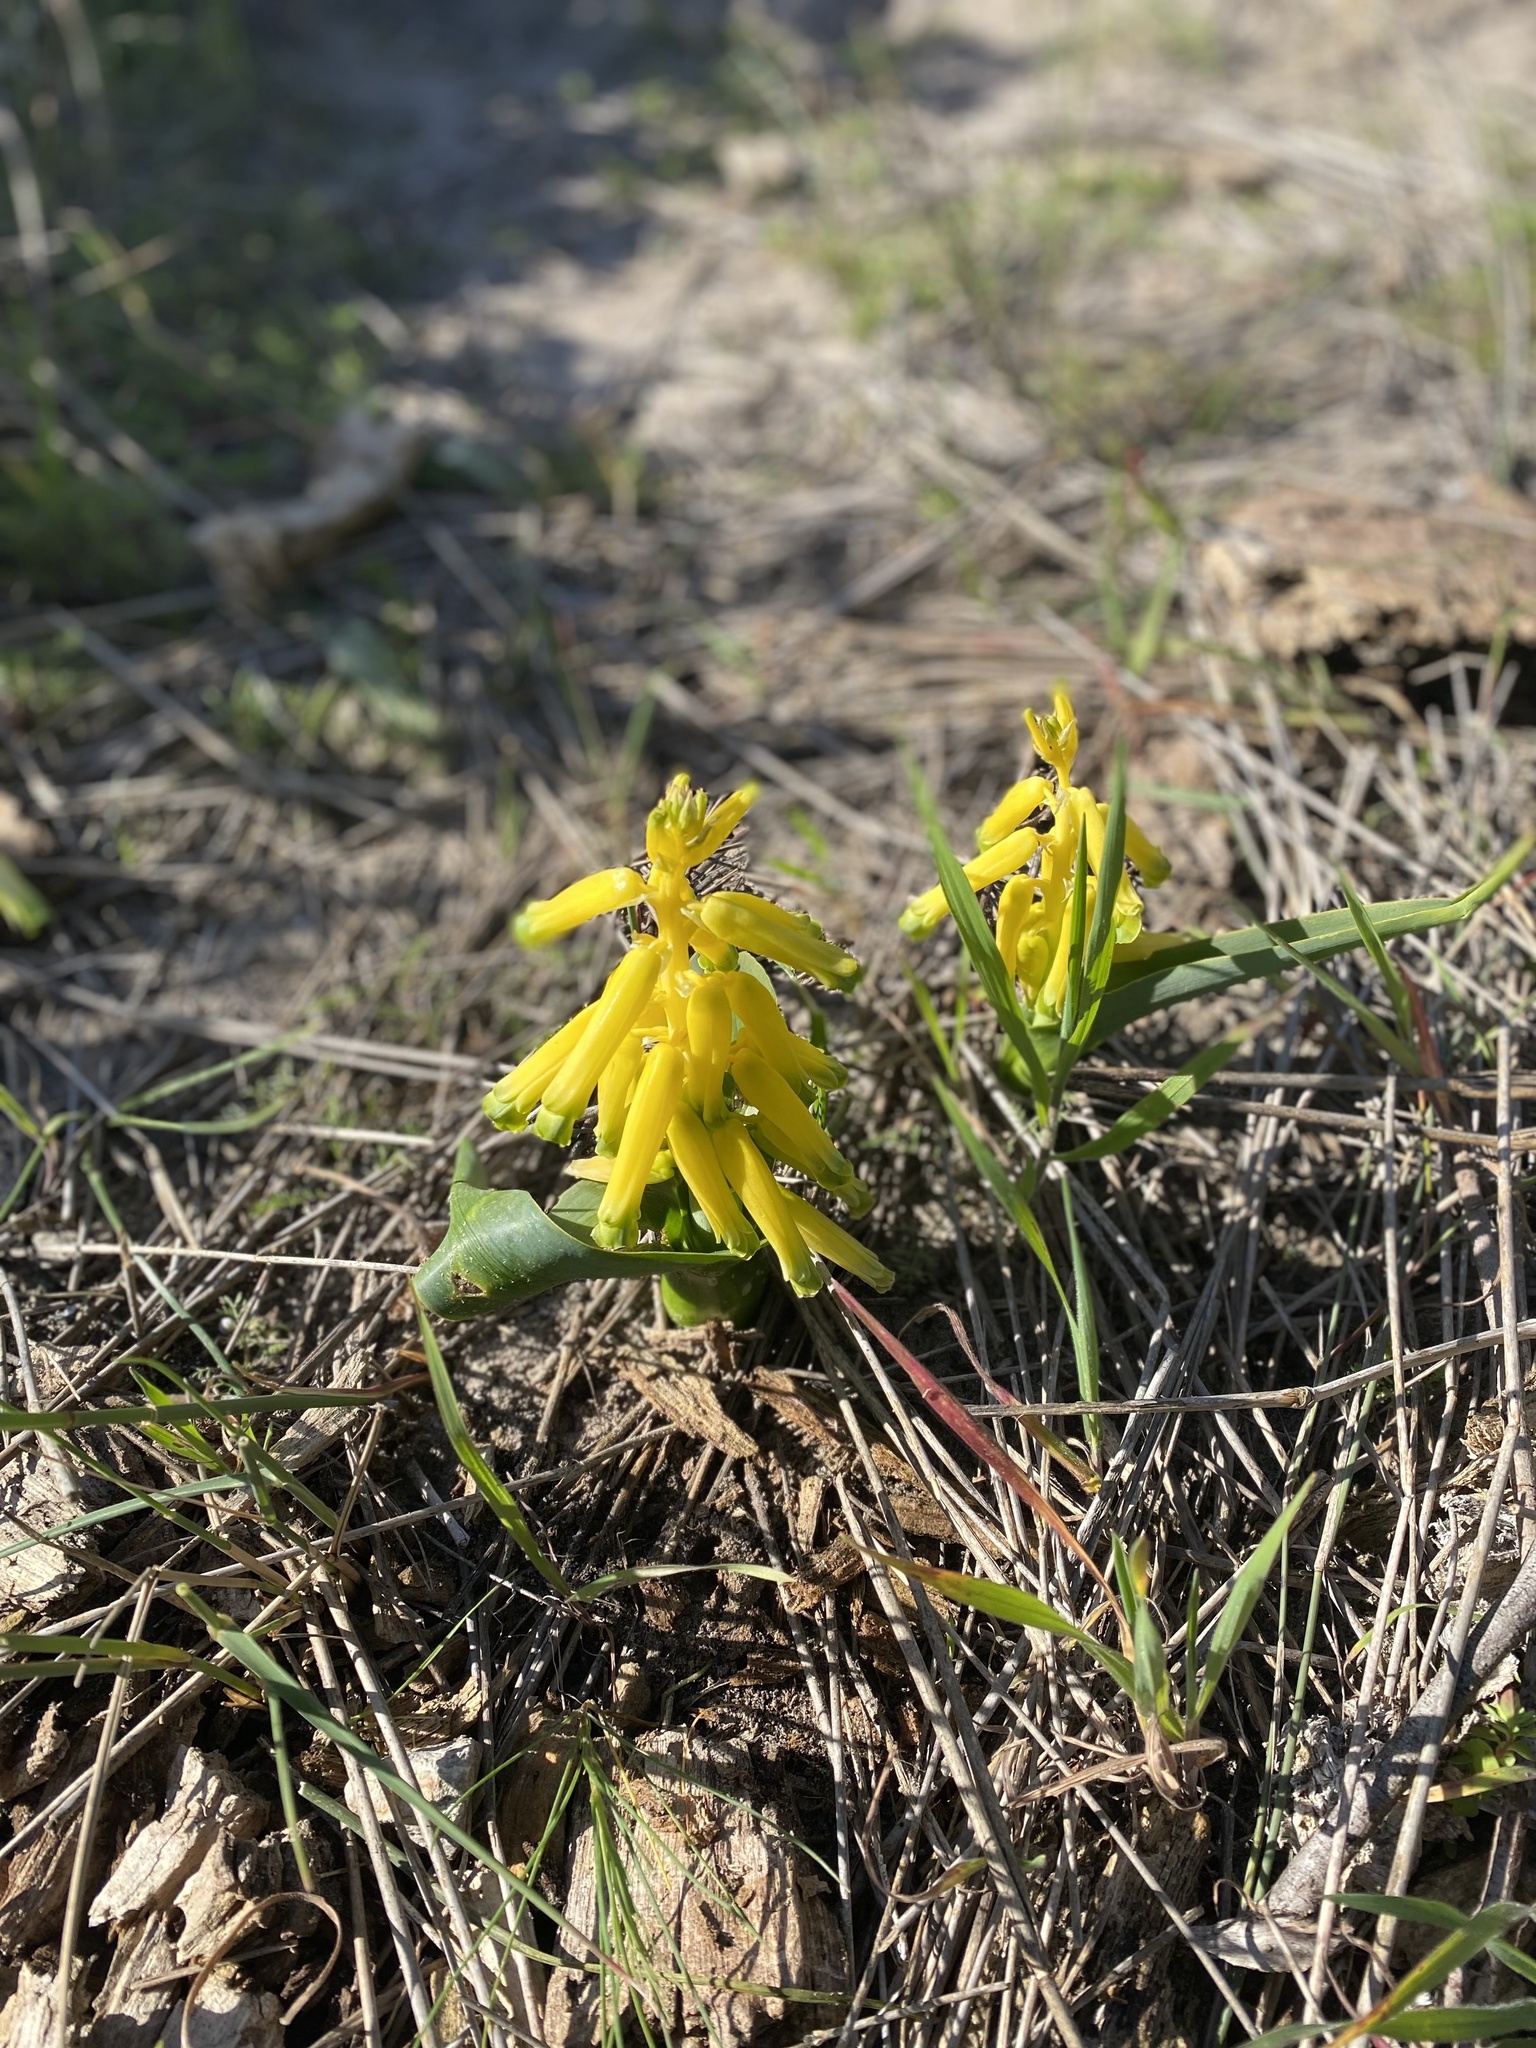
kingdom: Plantae
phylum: Tracheophyta
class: Liliopsida
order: Asparagales
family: Asparagaceae
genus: Lachenalia
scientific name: Lachenalia bulbifera
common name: Red lachenalia
